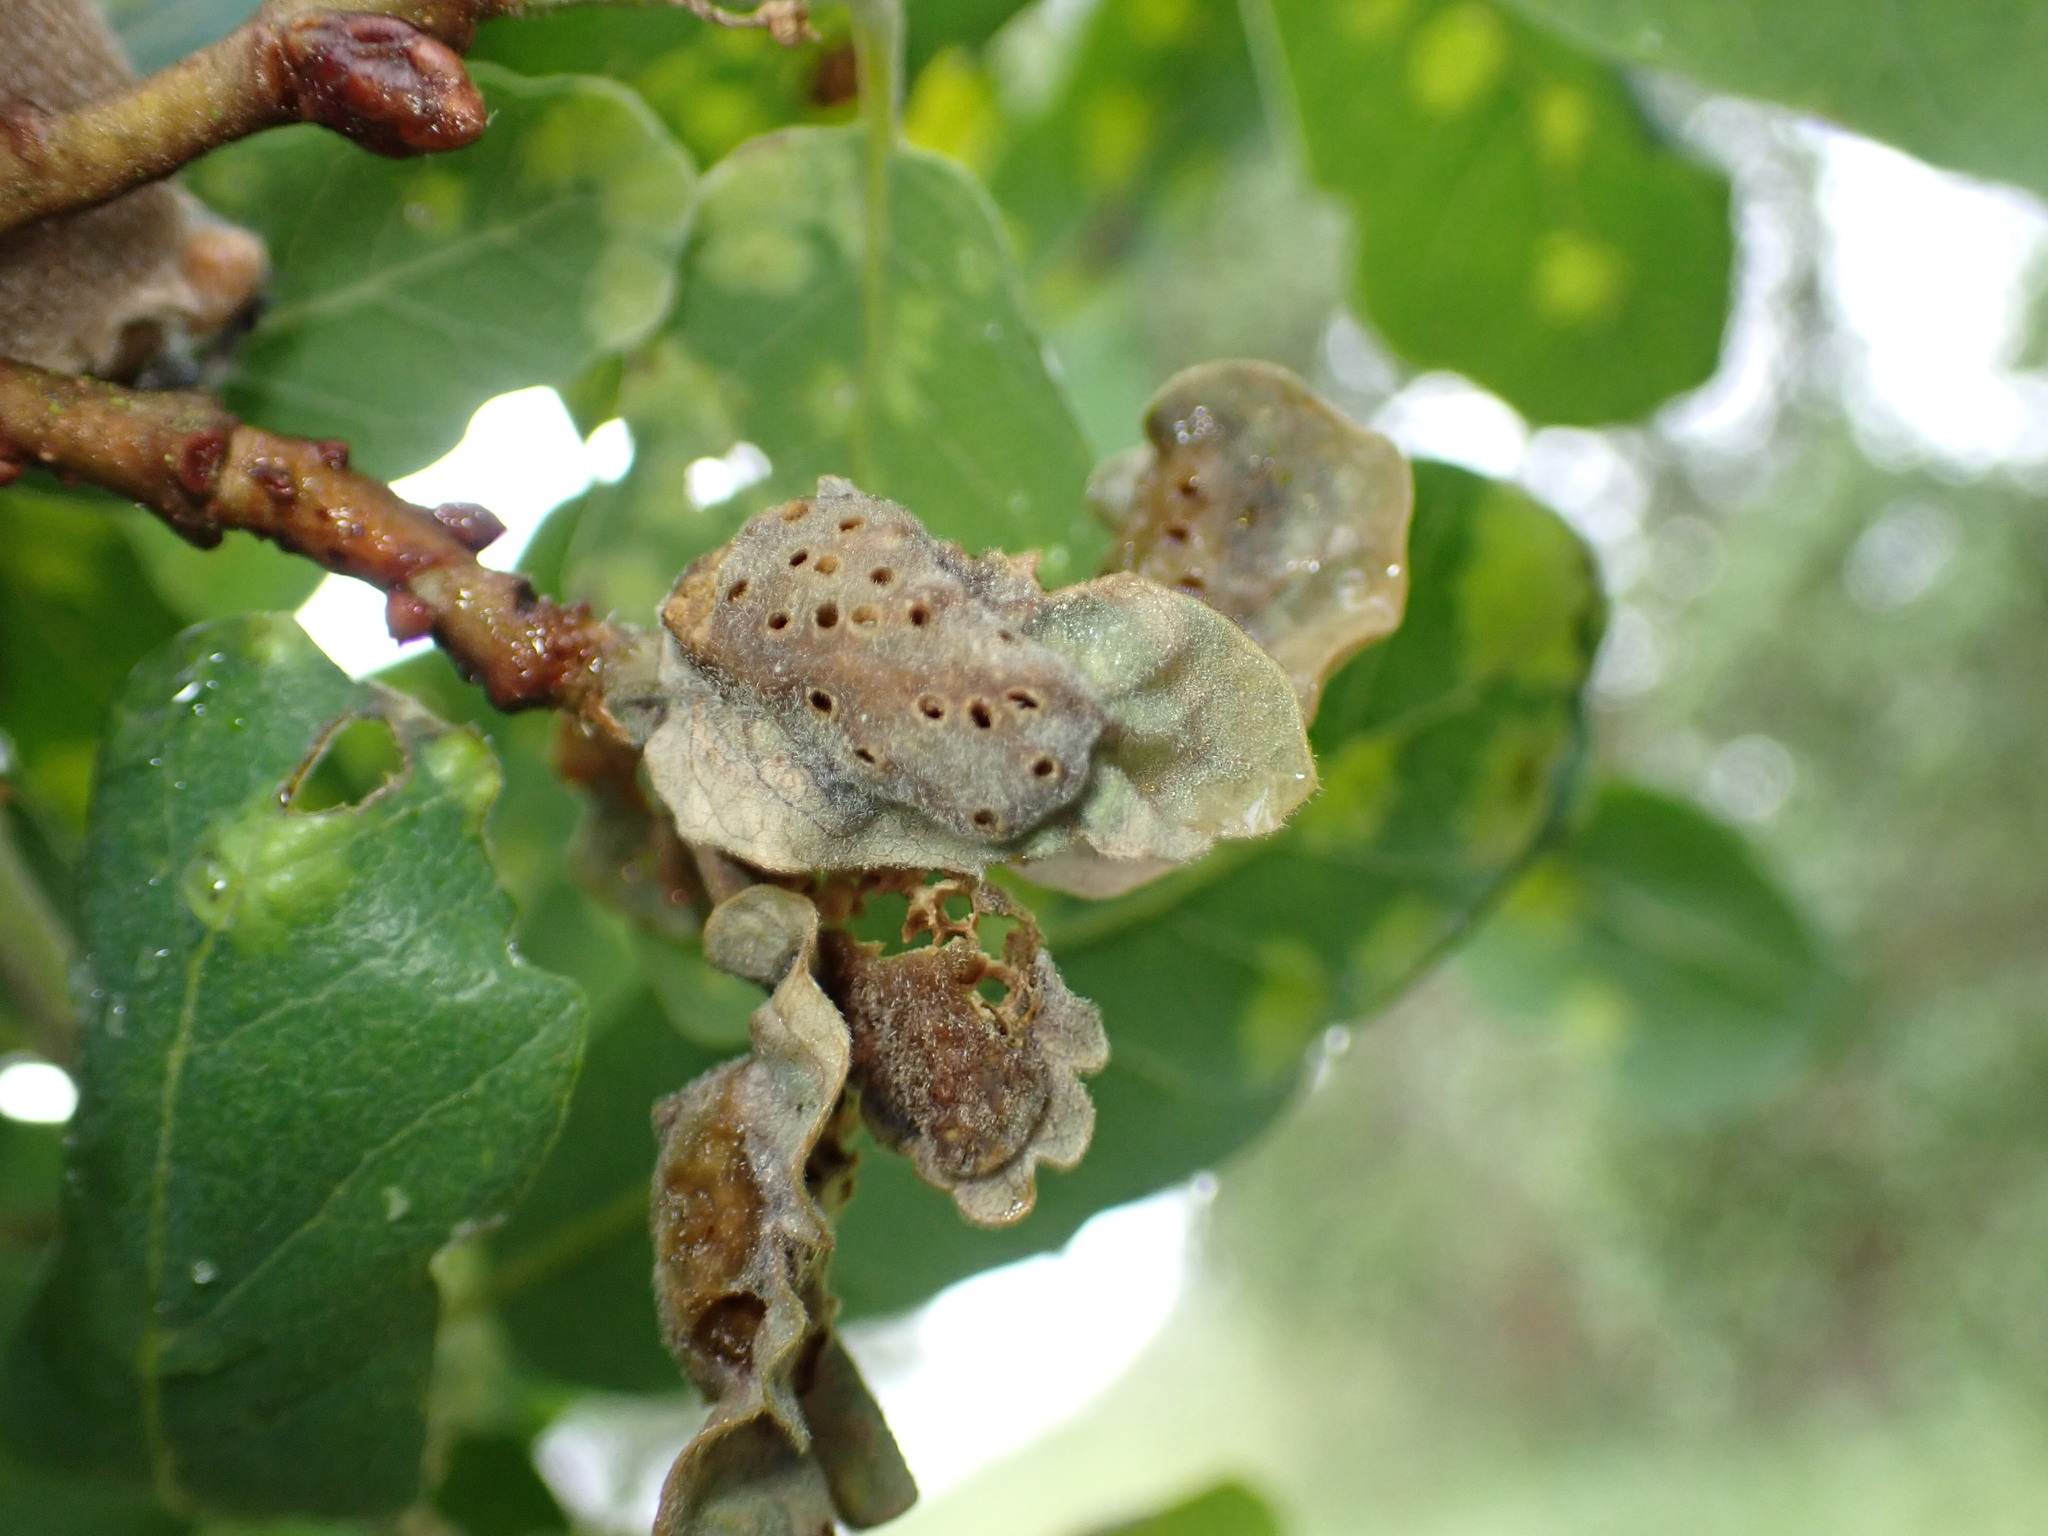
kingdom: Animalia
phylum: Arthropoda
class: Insecta
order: Hymenoptera
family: Cynipidae
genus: Neuroterus
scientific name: Neuroterus
